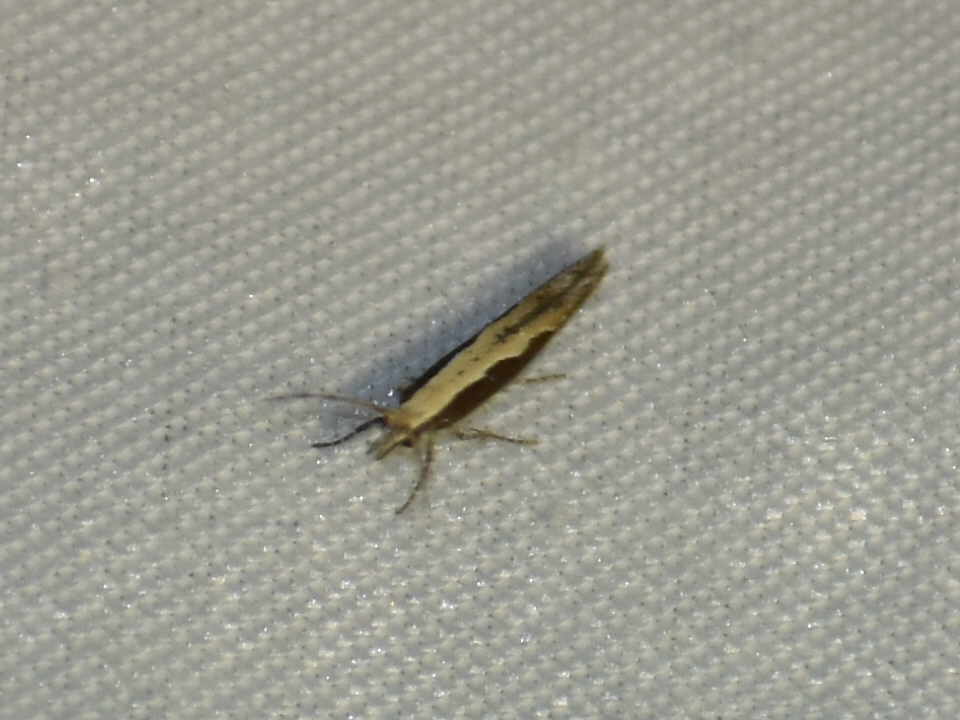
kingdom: Animalia
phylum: Arthropoda
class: Insecta
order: Lepidoptera
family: Plutellidae
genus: Plutella
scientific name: Plutella xylostella
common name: Diamond-back moth
